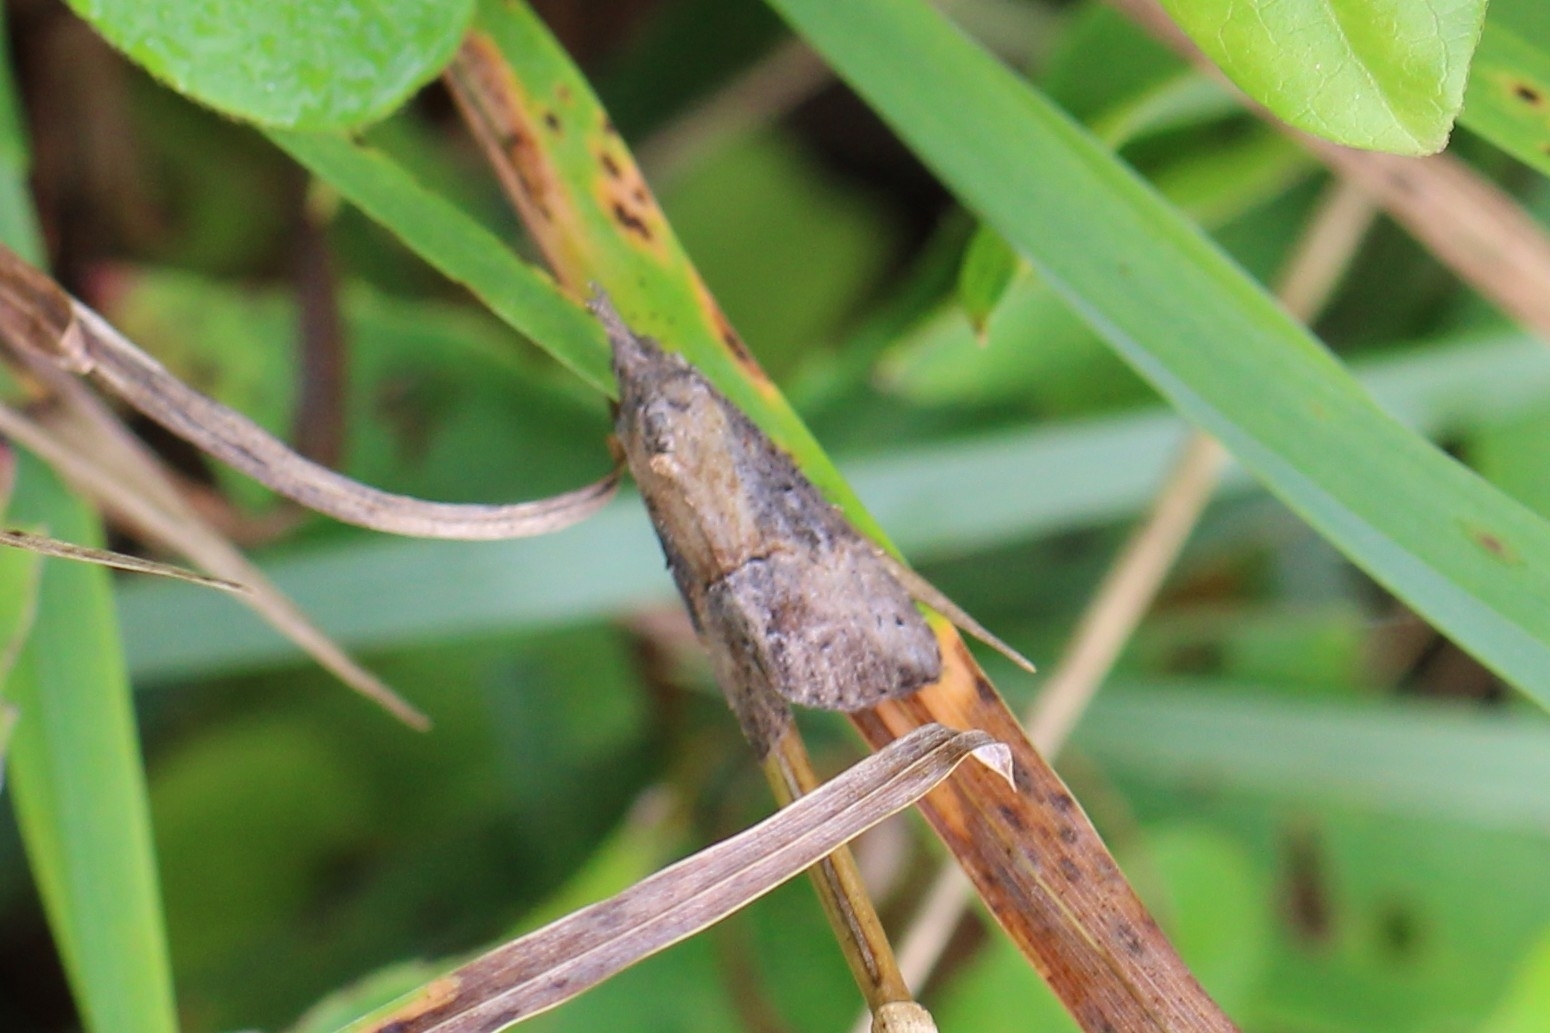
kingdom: Animalia
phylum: Arthropoda
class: Insecta
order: Lepidoptera
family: Erebidae
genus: Hypena
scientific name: Hypena scabra
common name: Green cloverworm
